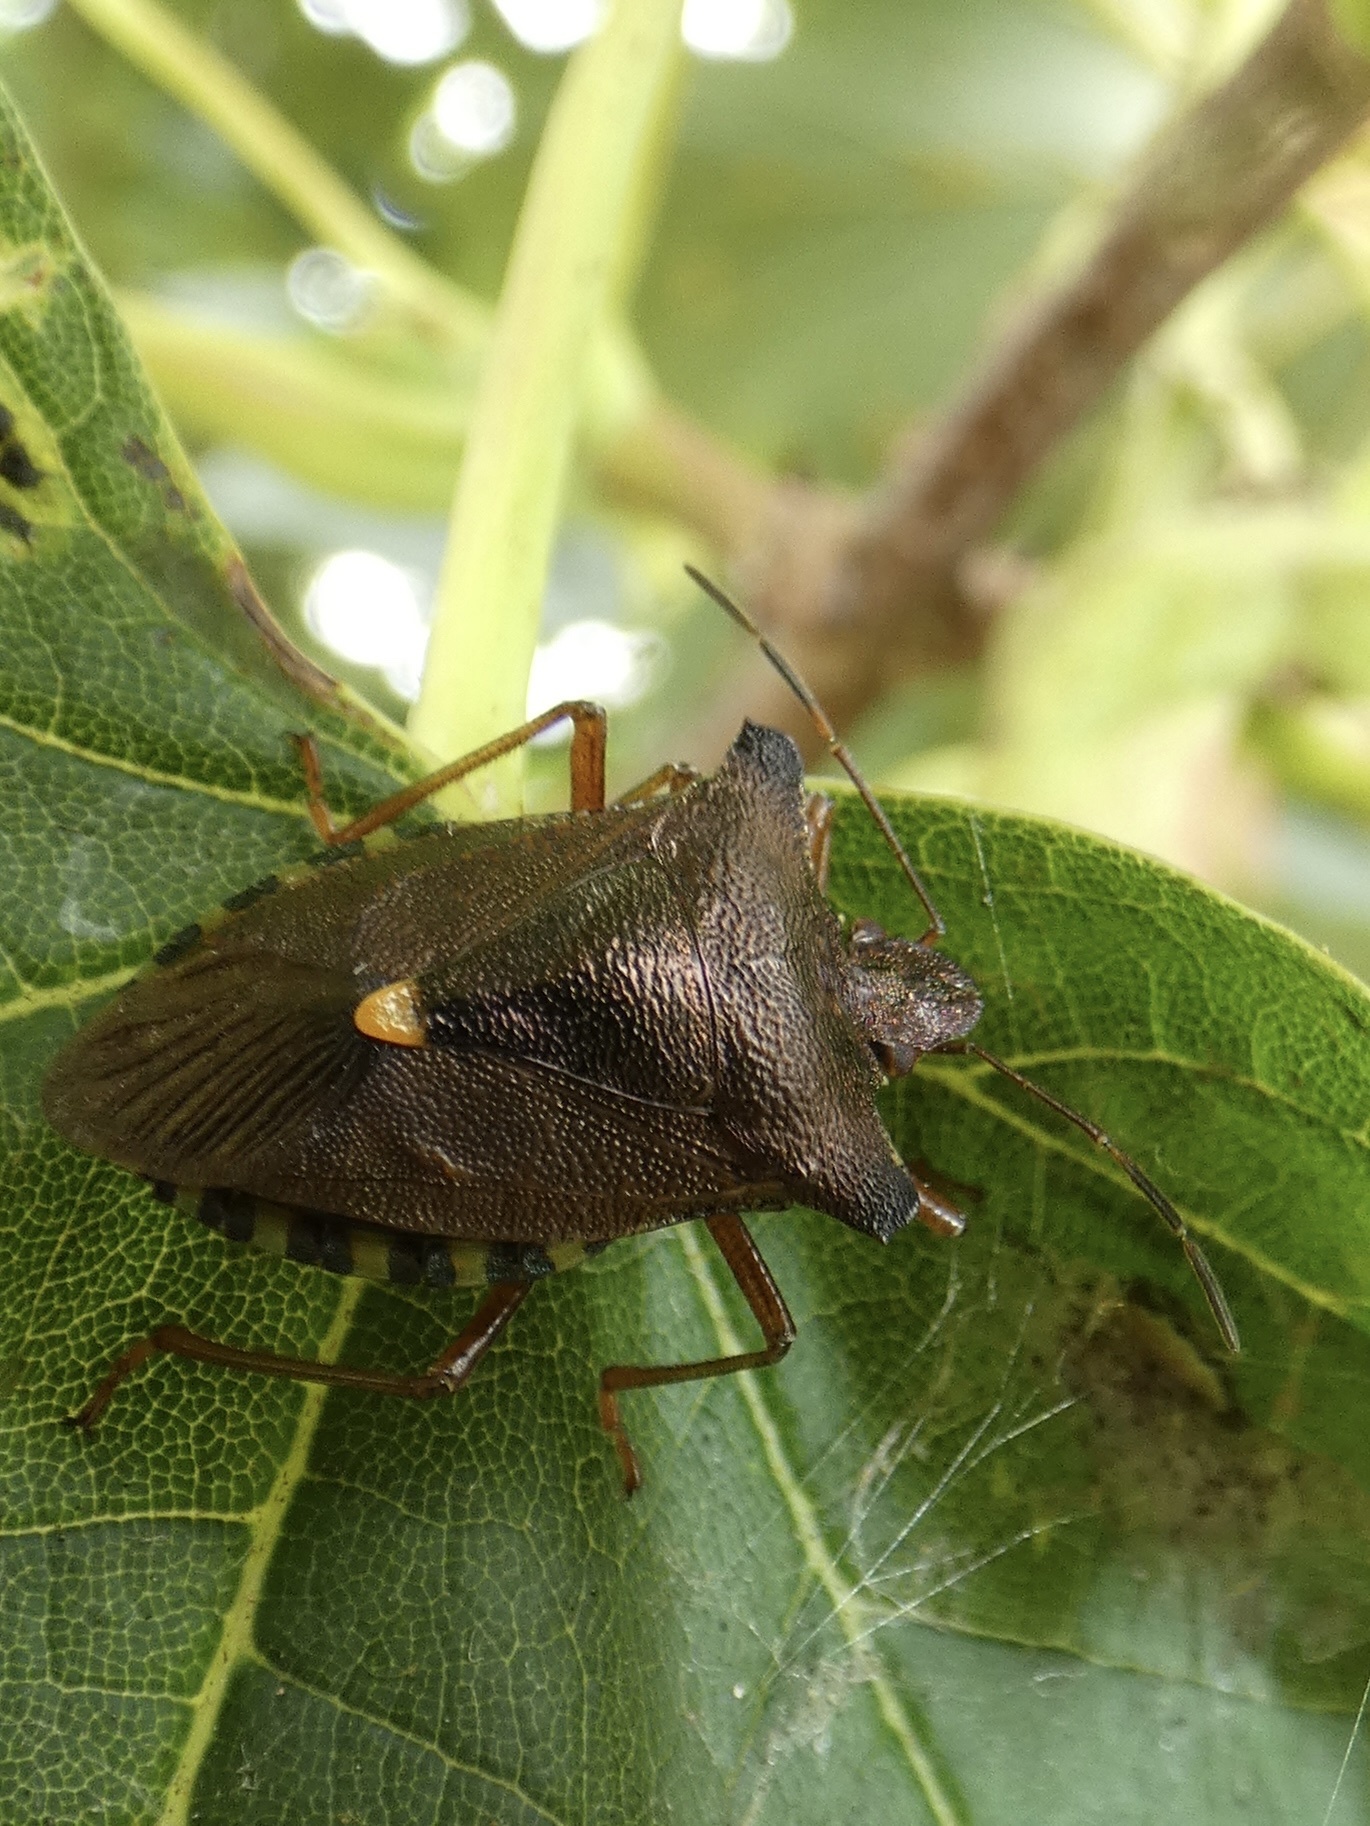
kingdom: Animalia
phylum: Arthropoda
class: Insecta
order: Hemiptera
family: Pentatomidae
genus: Pentatoma
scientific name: Pentatoma rufipes
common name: Forest bug
